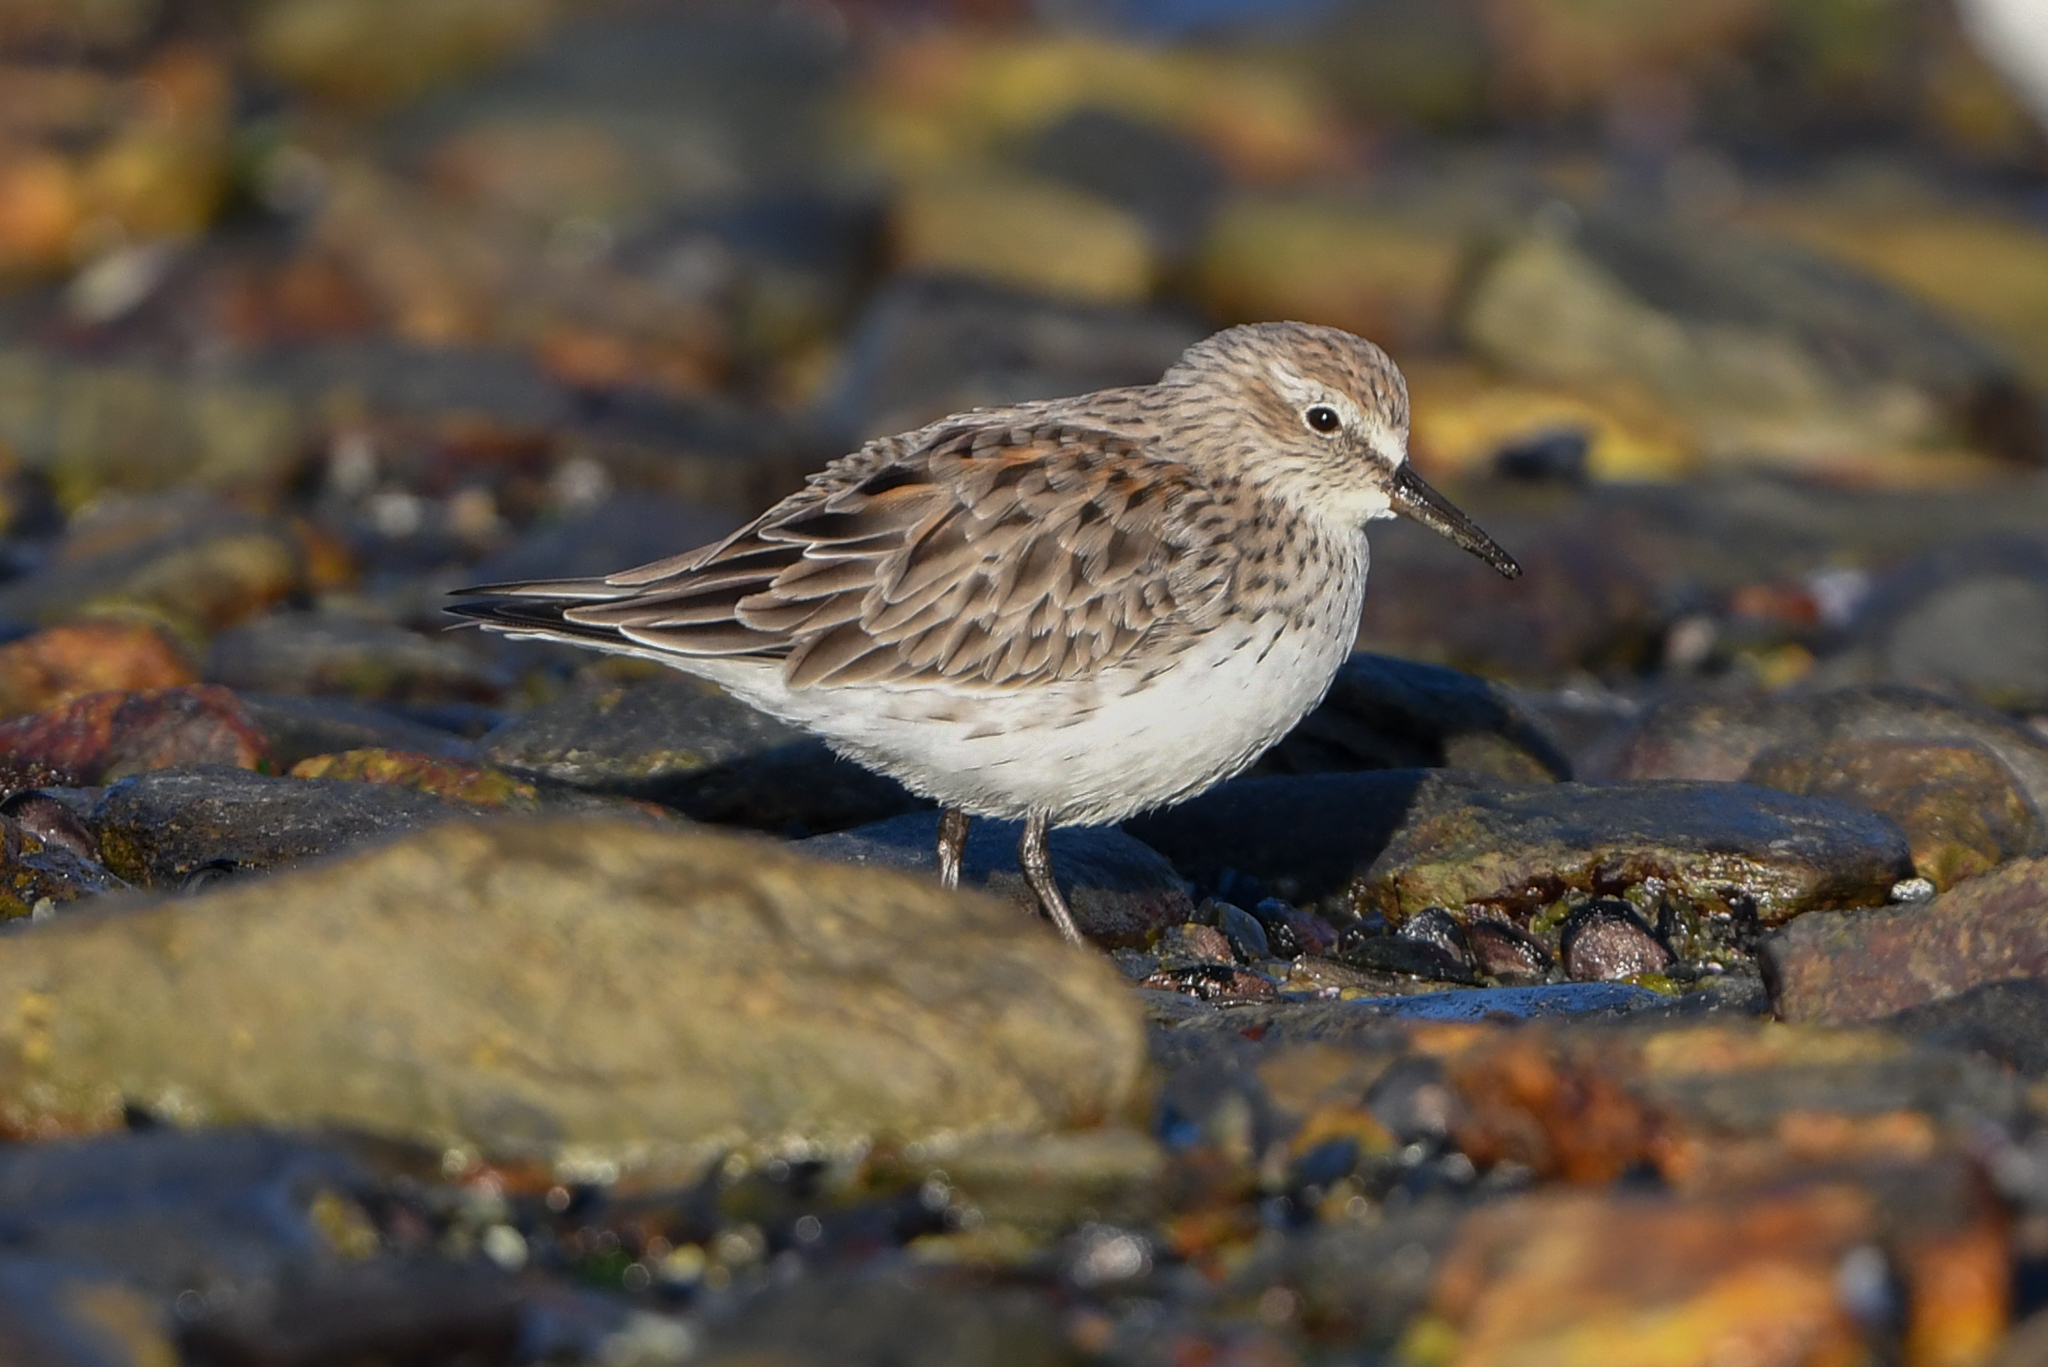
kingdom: Animalia
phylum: Chordata
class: Aves
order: Charadriiformes
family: Scolopacidae
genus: Calidris
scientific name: Calidris fuscicollis
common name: White-rumped sandpiper
